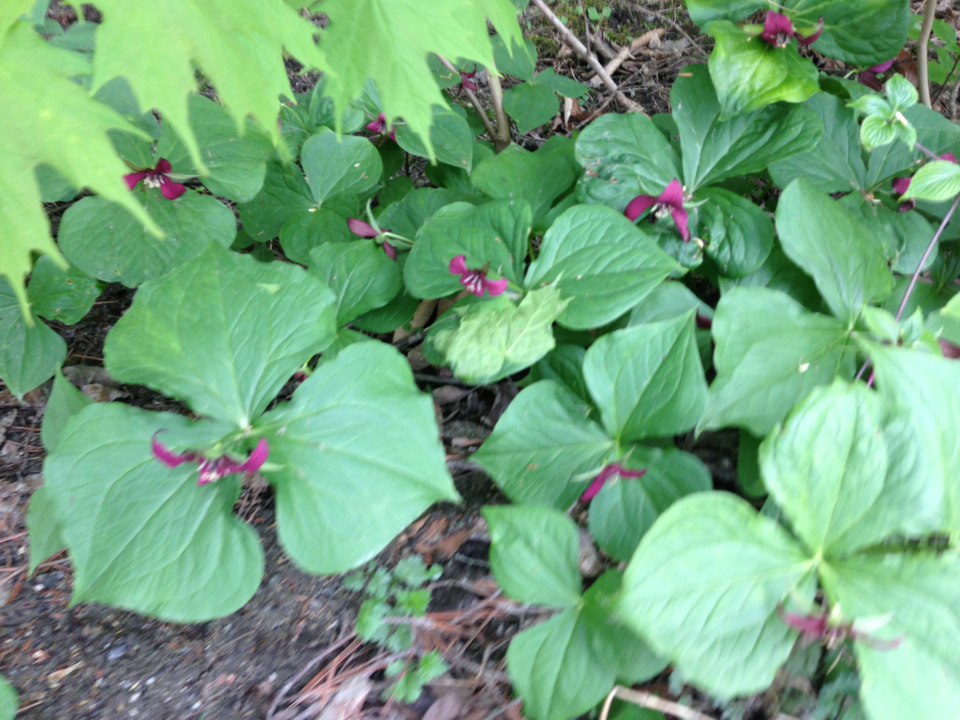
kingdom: Plantae
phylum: Tracheophyta
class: Liliopsida
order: Liliales
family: Melanthiaceae
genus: Trillium
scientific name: Trillium erectum
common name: Purple trillium
